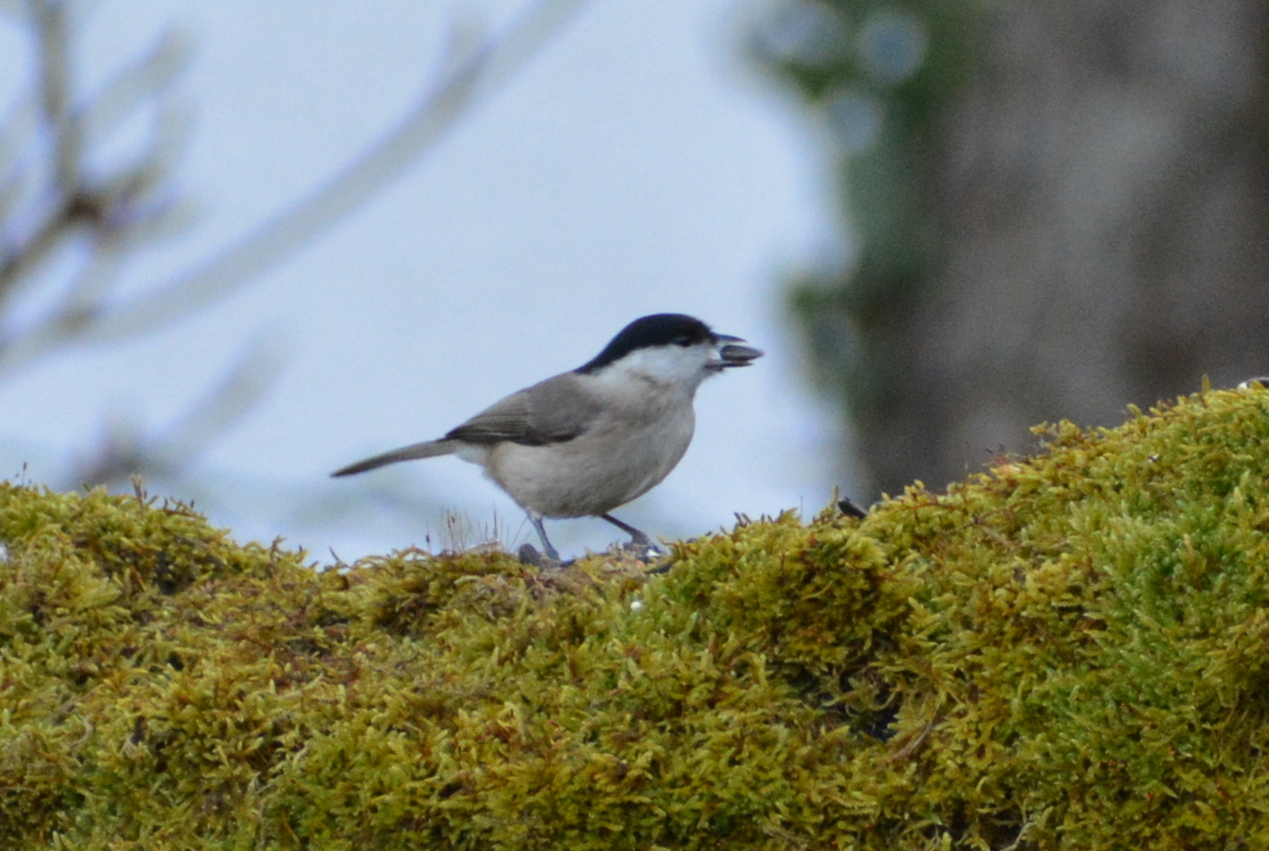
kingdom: Animalia
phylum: Chordata
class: Aves
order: Passeriformes
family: Paridae
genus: Poecile
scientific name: Poecile palustris
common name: Marsh tit
